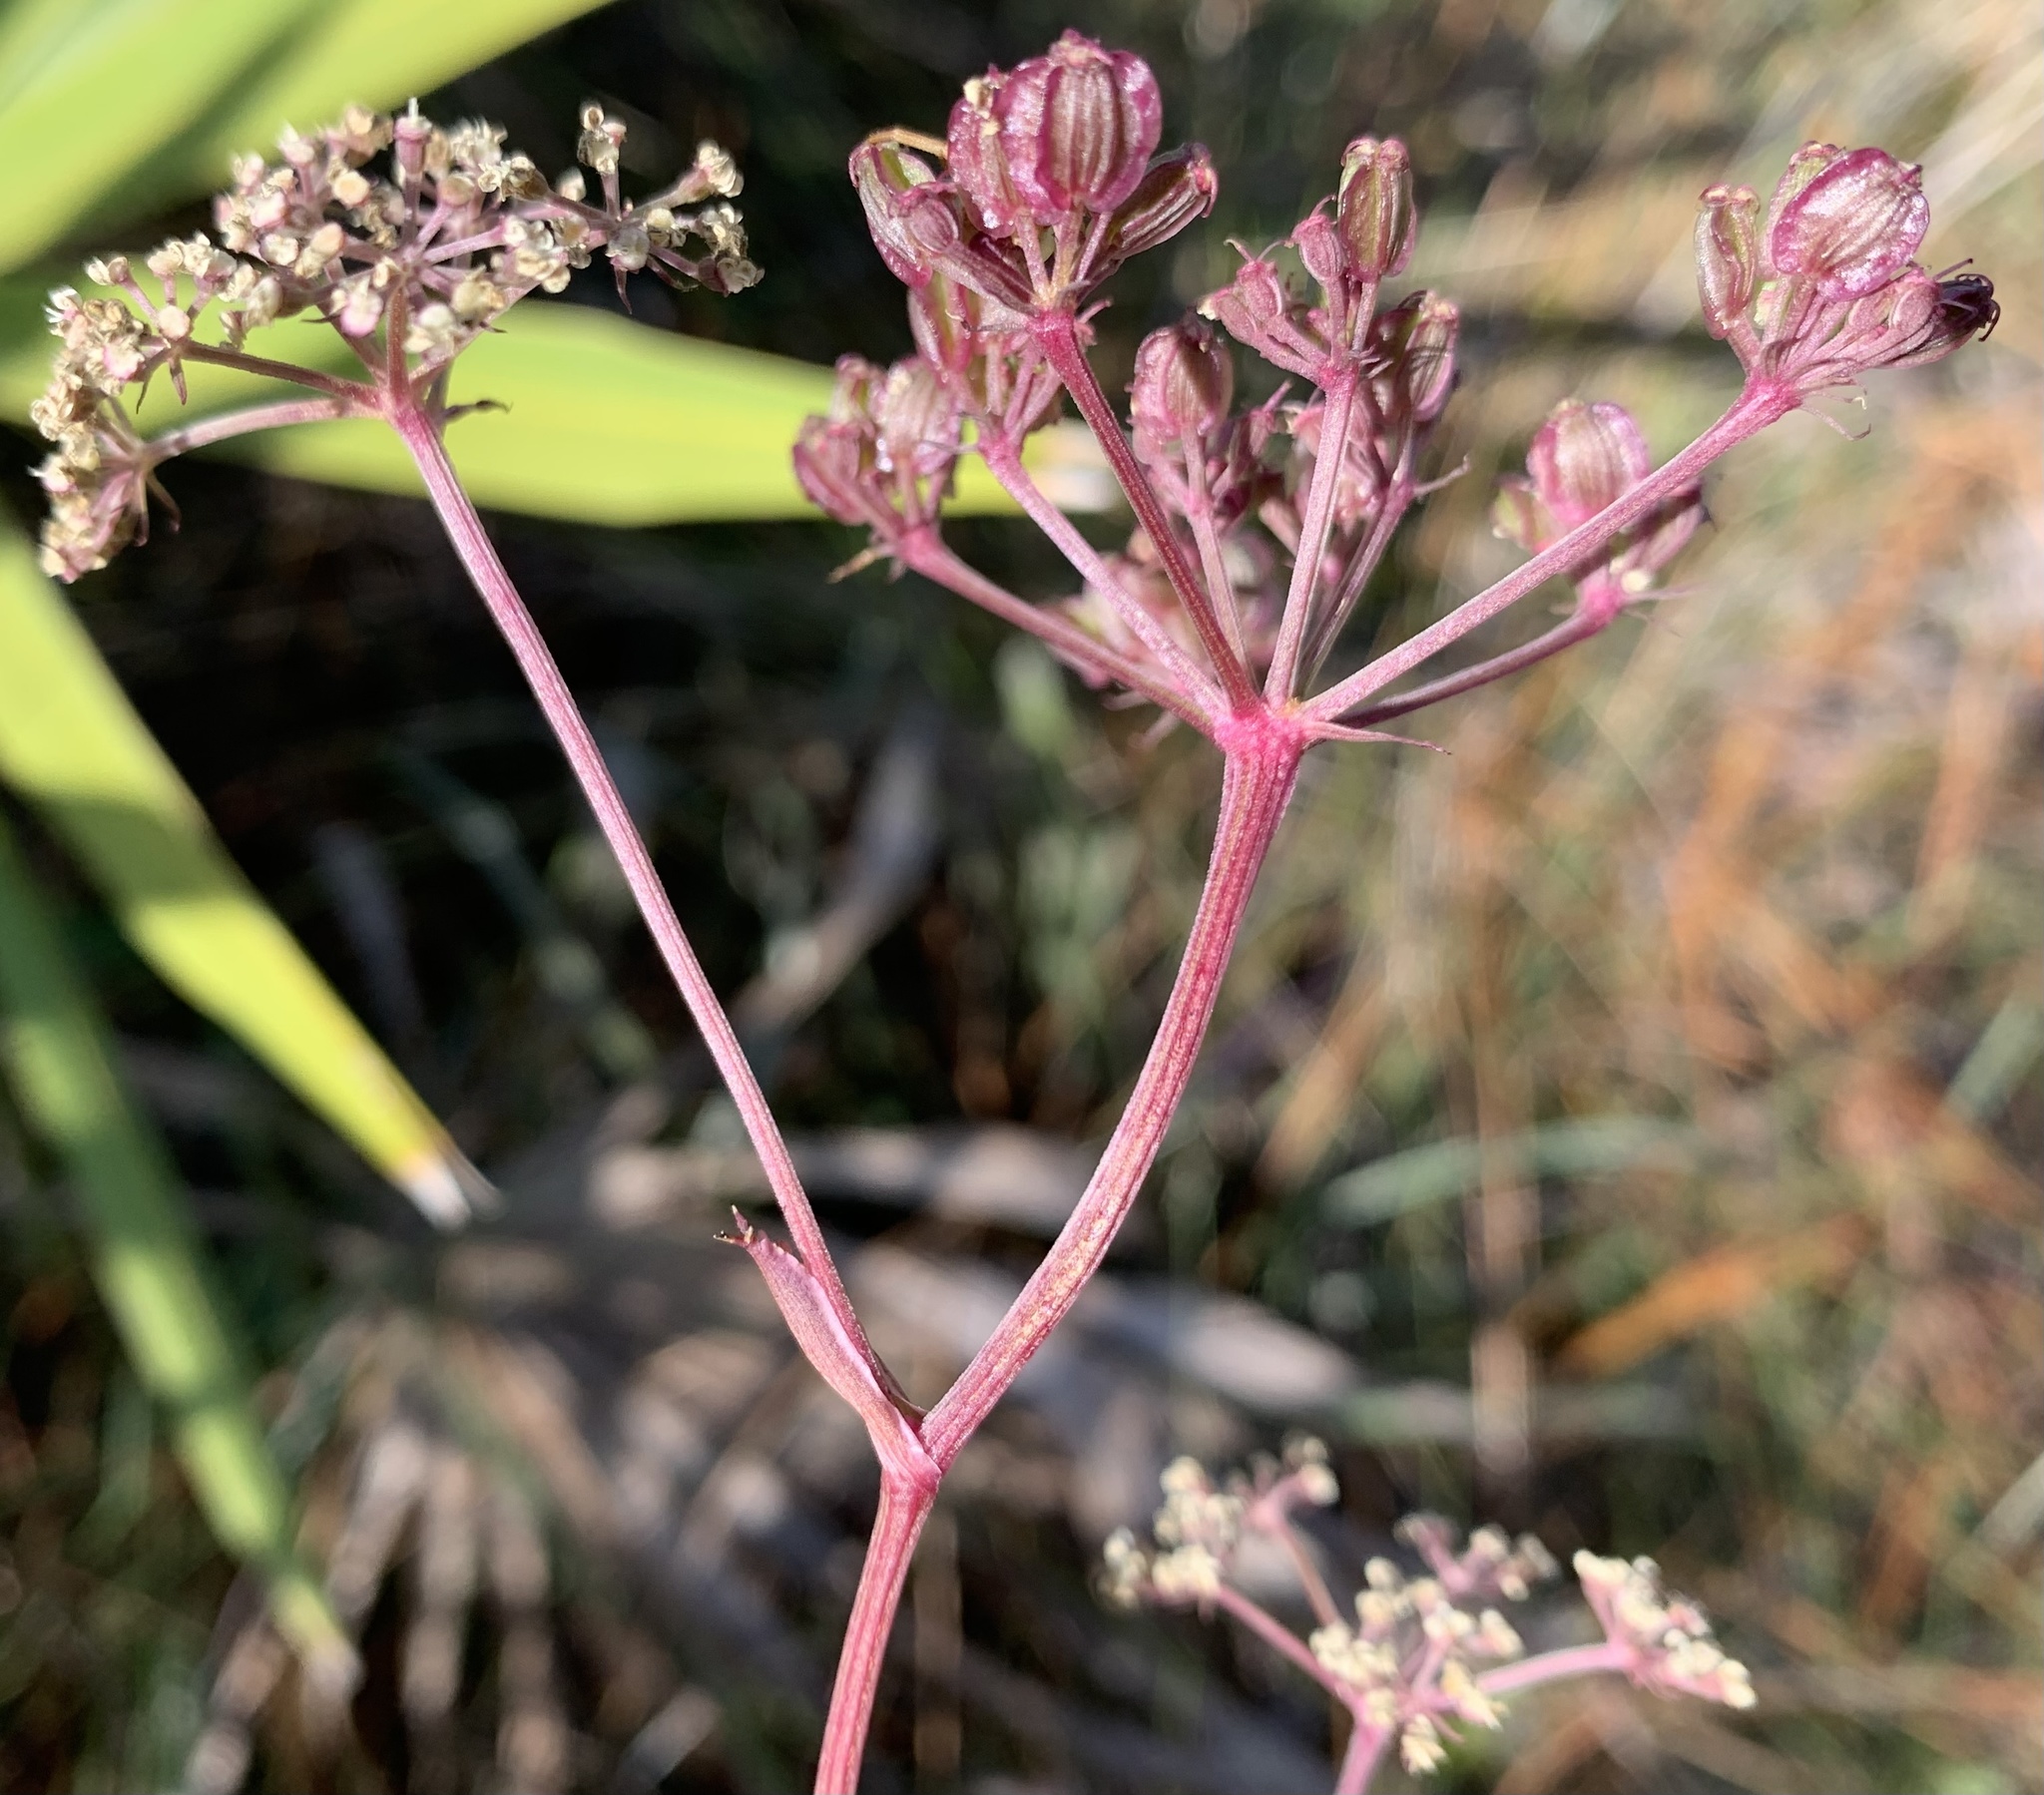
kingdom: Plantae
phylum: Tracheophyta
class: Magnoliopsida
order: Apiales
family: Apiaceae
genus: Angelica
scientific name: Angelica venenosa
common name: Hairy angelica
